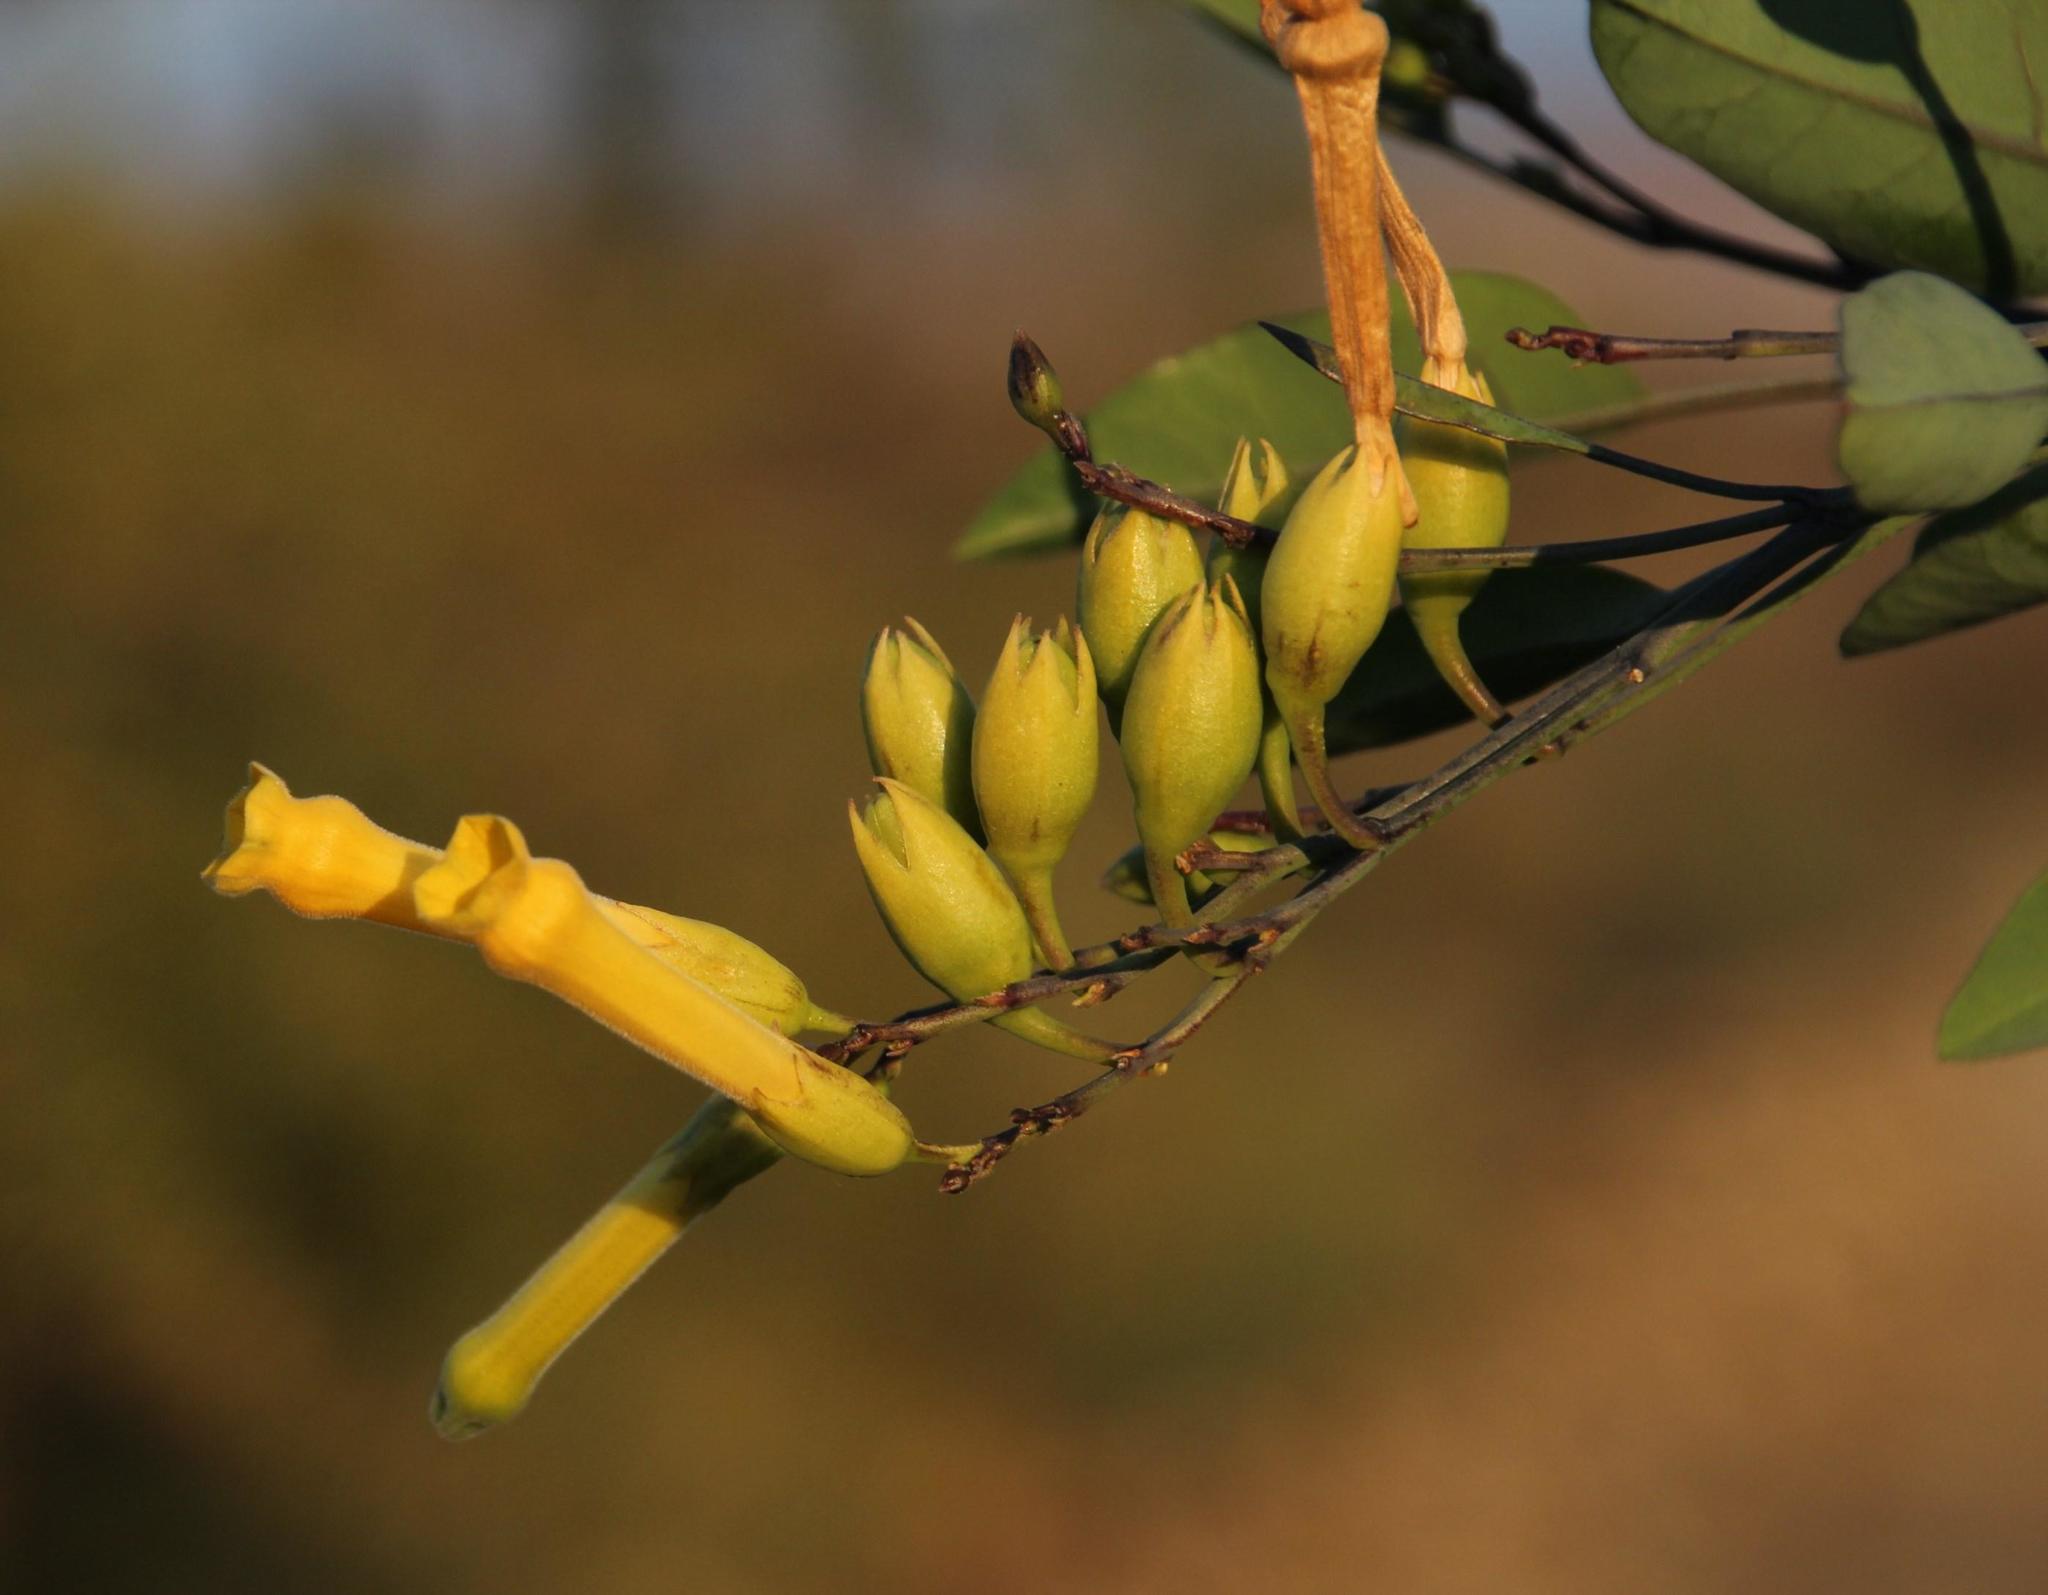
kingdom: Plantae
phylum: Tracheophyta
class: Magnoliopsida
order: Solanales
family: Solanaceae
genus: Nicotiana
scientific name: Nicotiana glauca
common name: Tree tobacco
